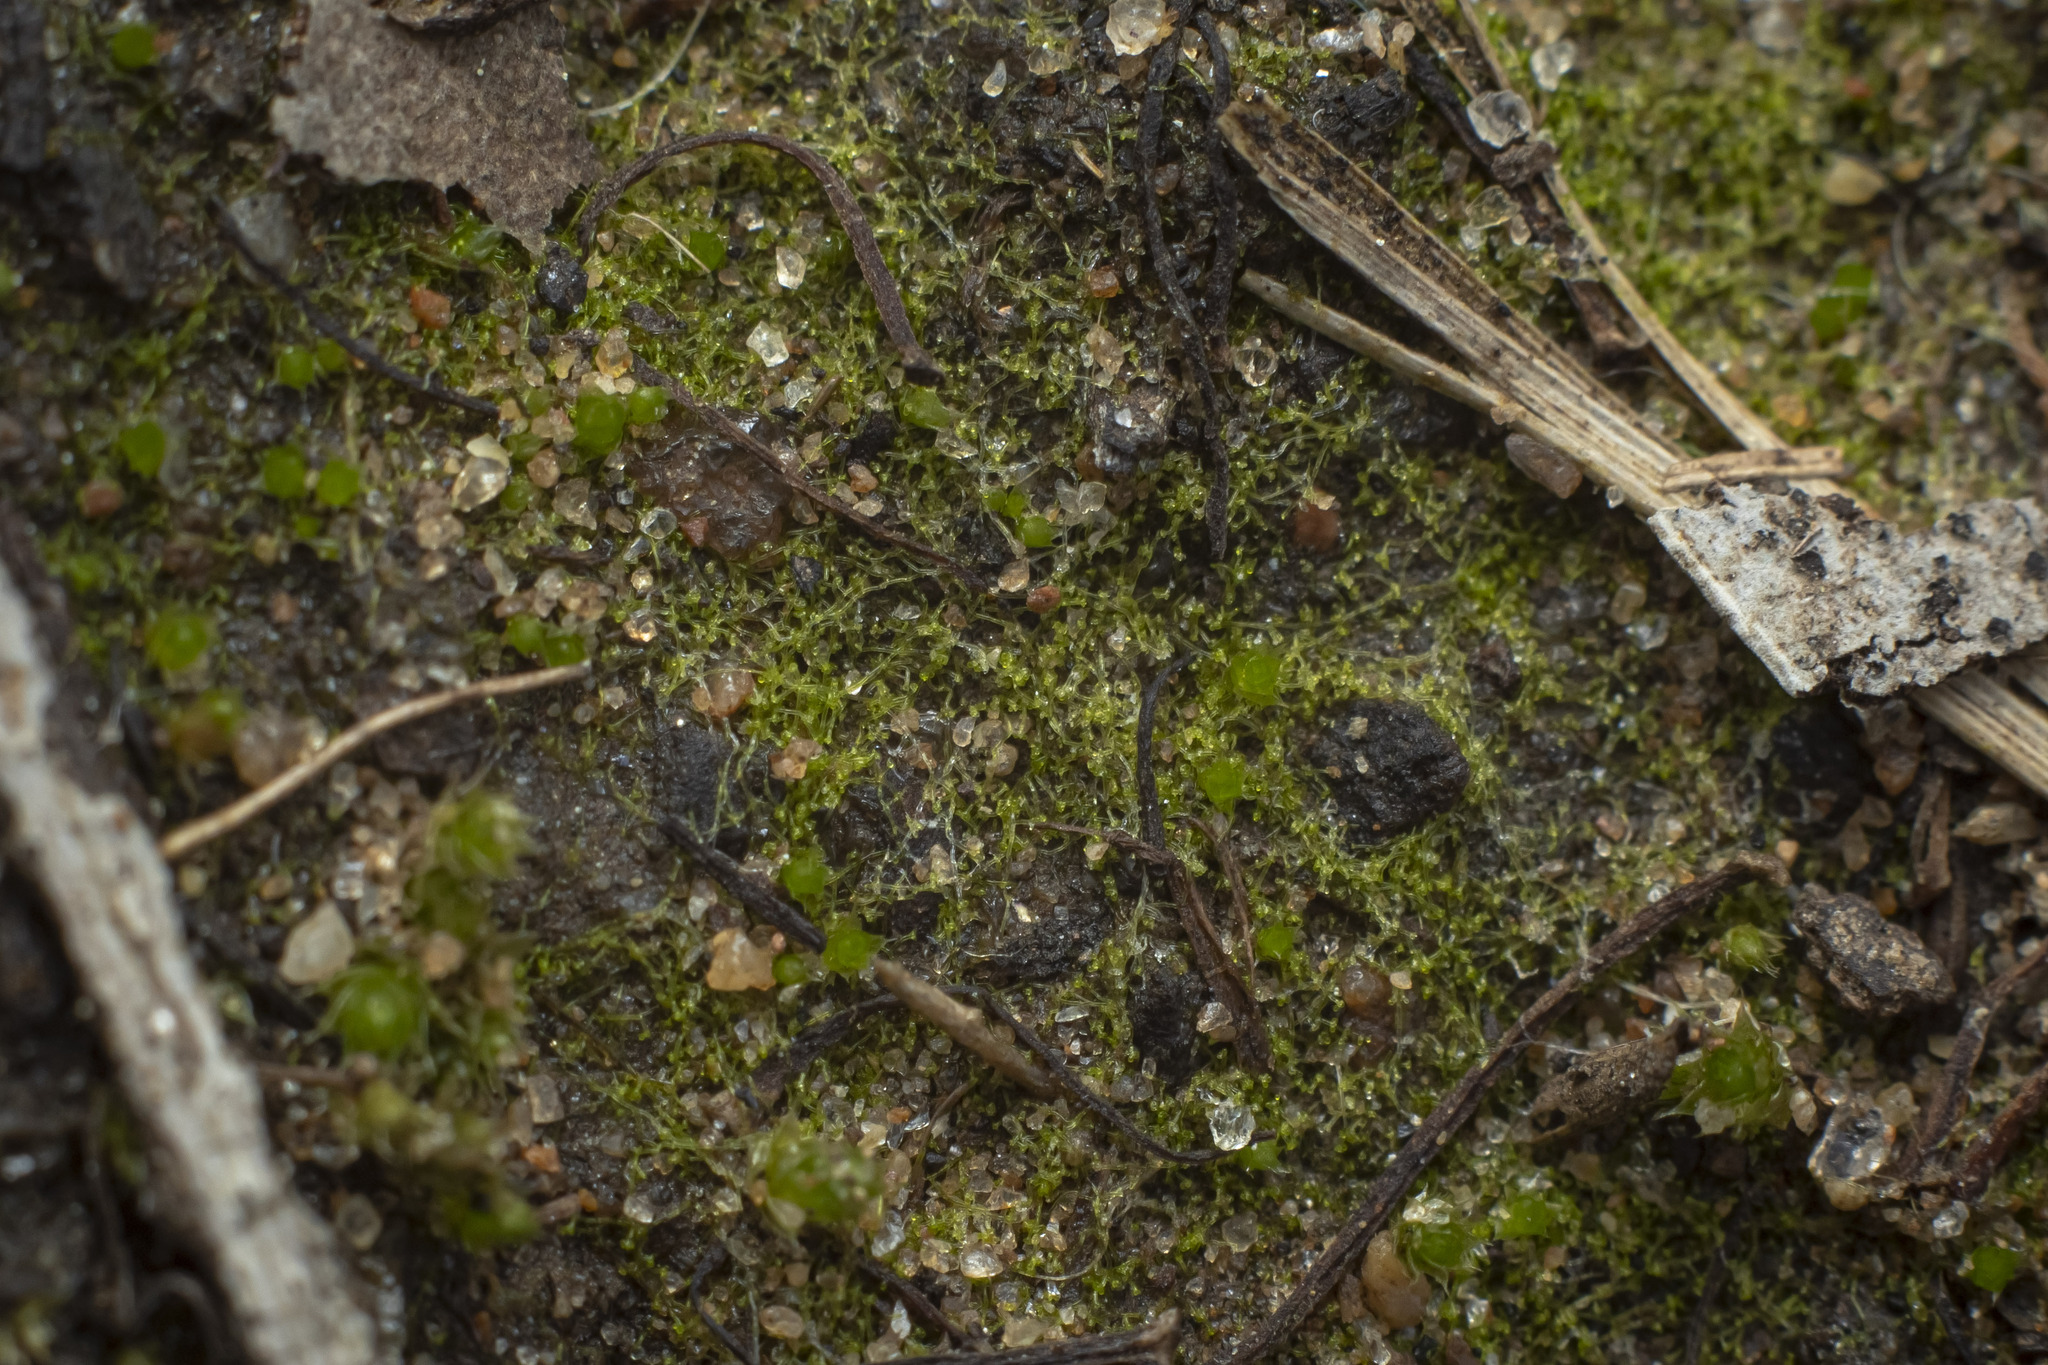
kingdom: Chromista
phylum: Ochrophyta
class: Xanthophyceae
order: Vaucheriales
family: Vaucheriaceae
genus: Vaucheria
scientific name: Vaucheria
